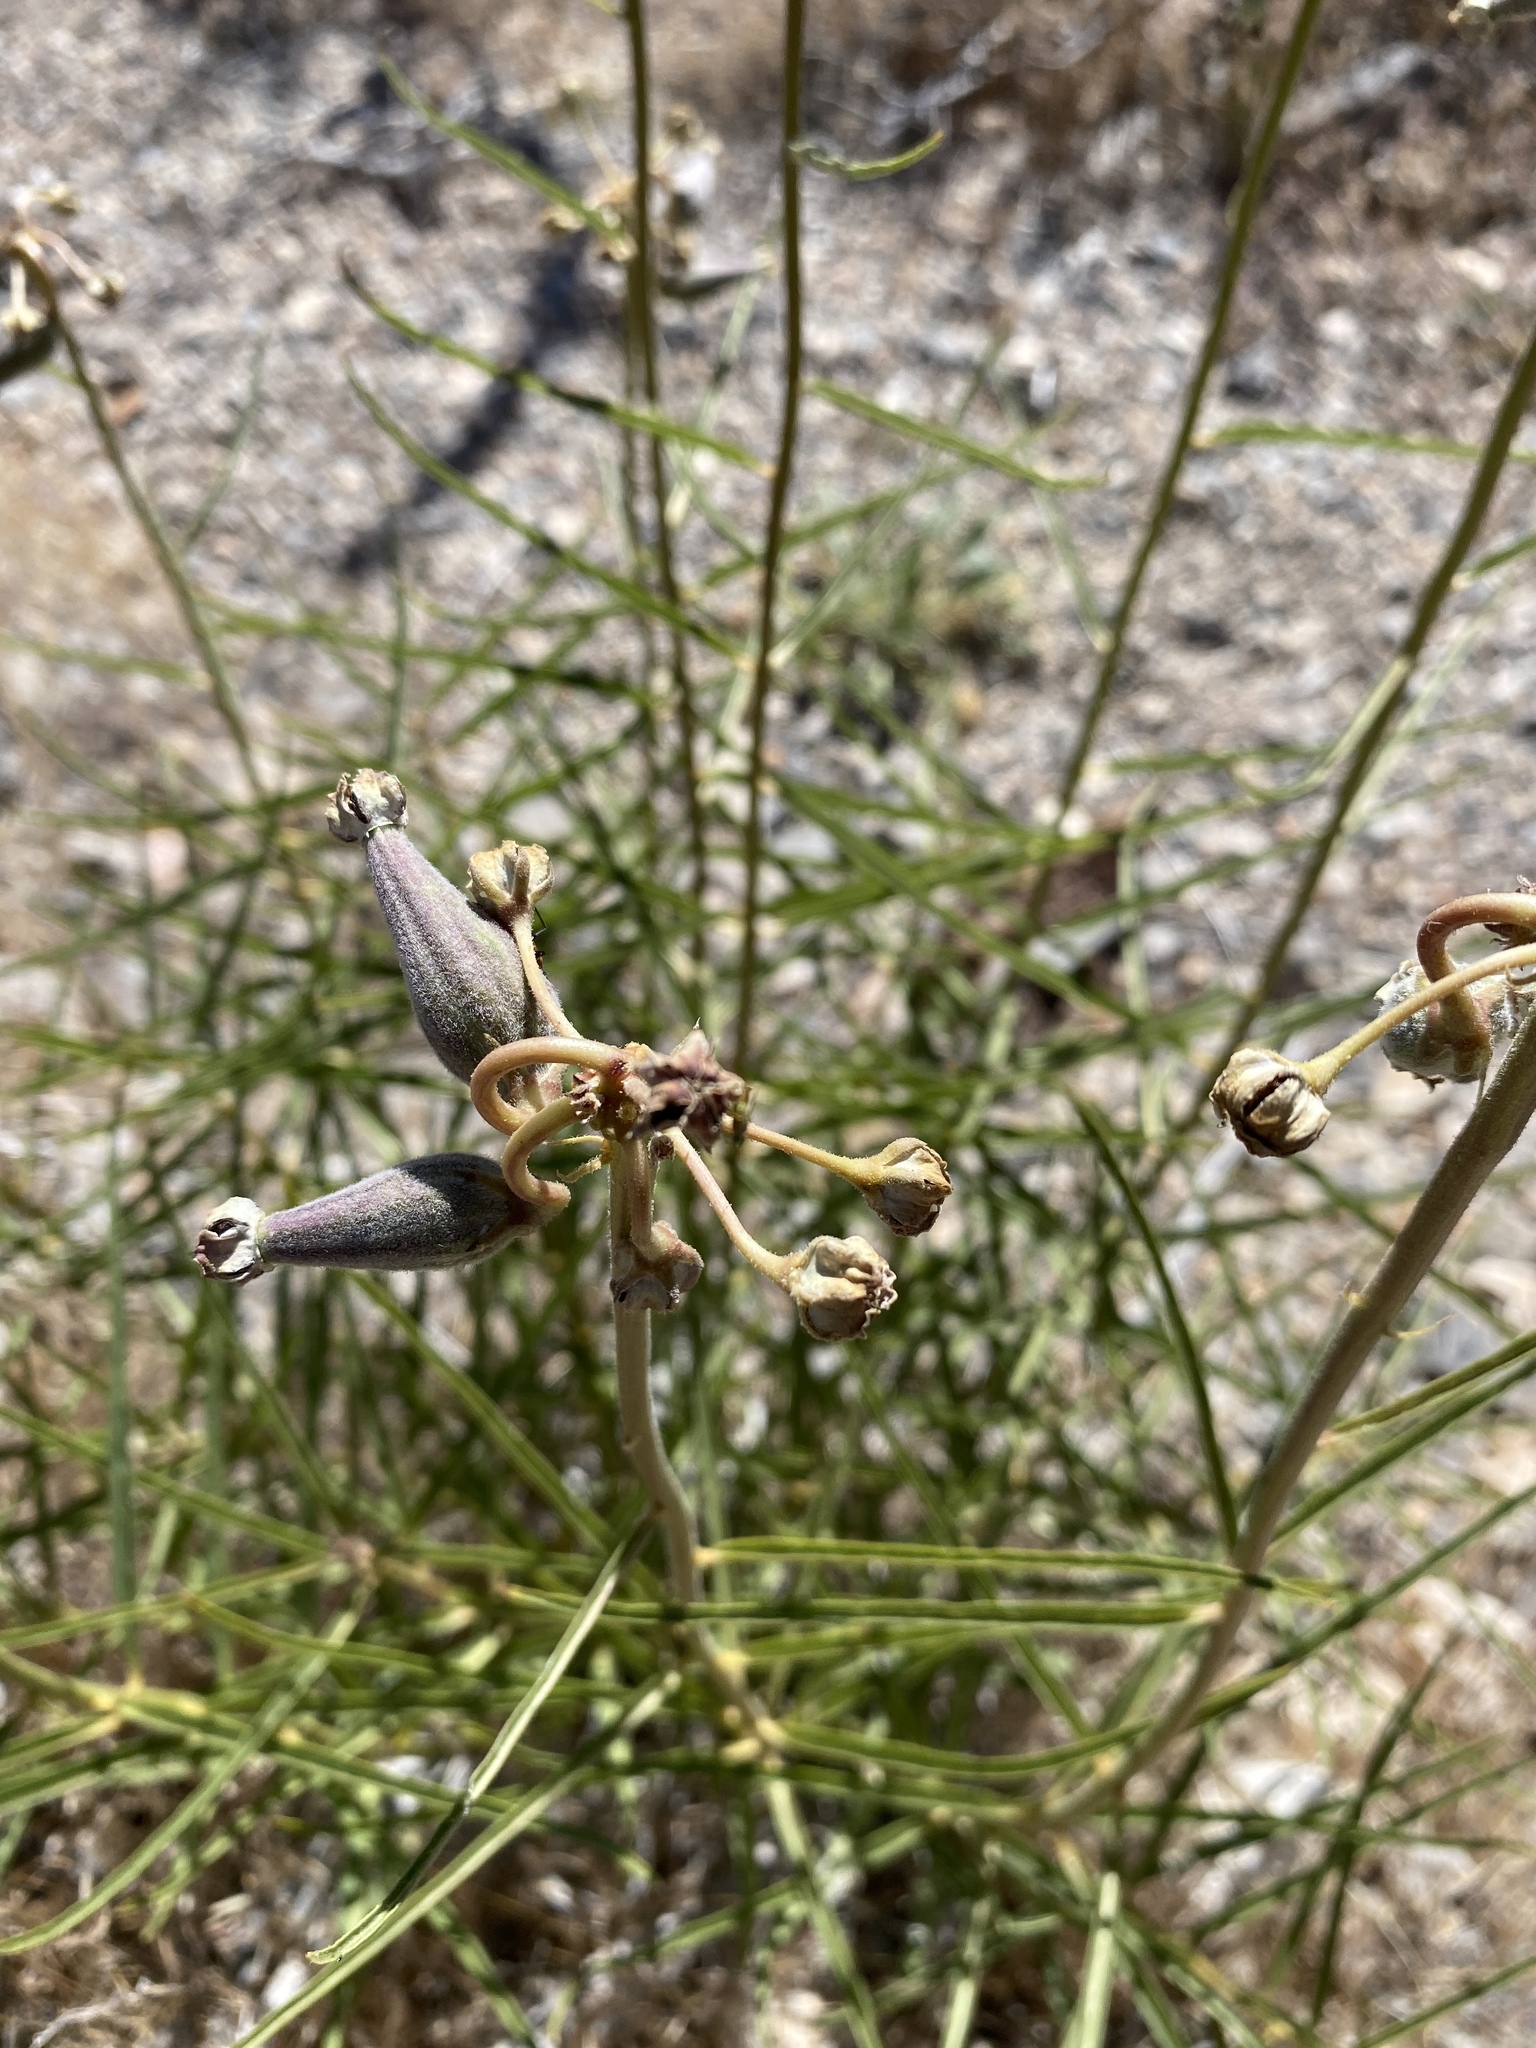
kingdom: Plantae
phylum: Tracheophyta
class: Magnoliopsida
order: Gentianales
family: Apocynaceae
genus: Asclepias
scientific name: Asclepias asperula
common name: Antelope horns
